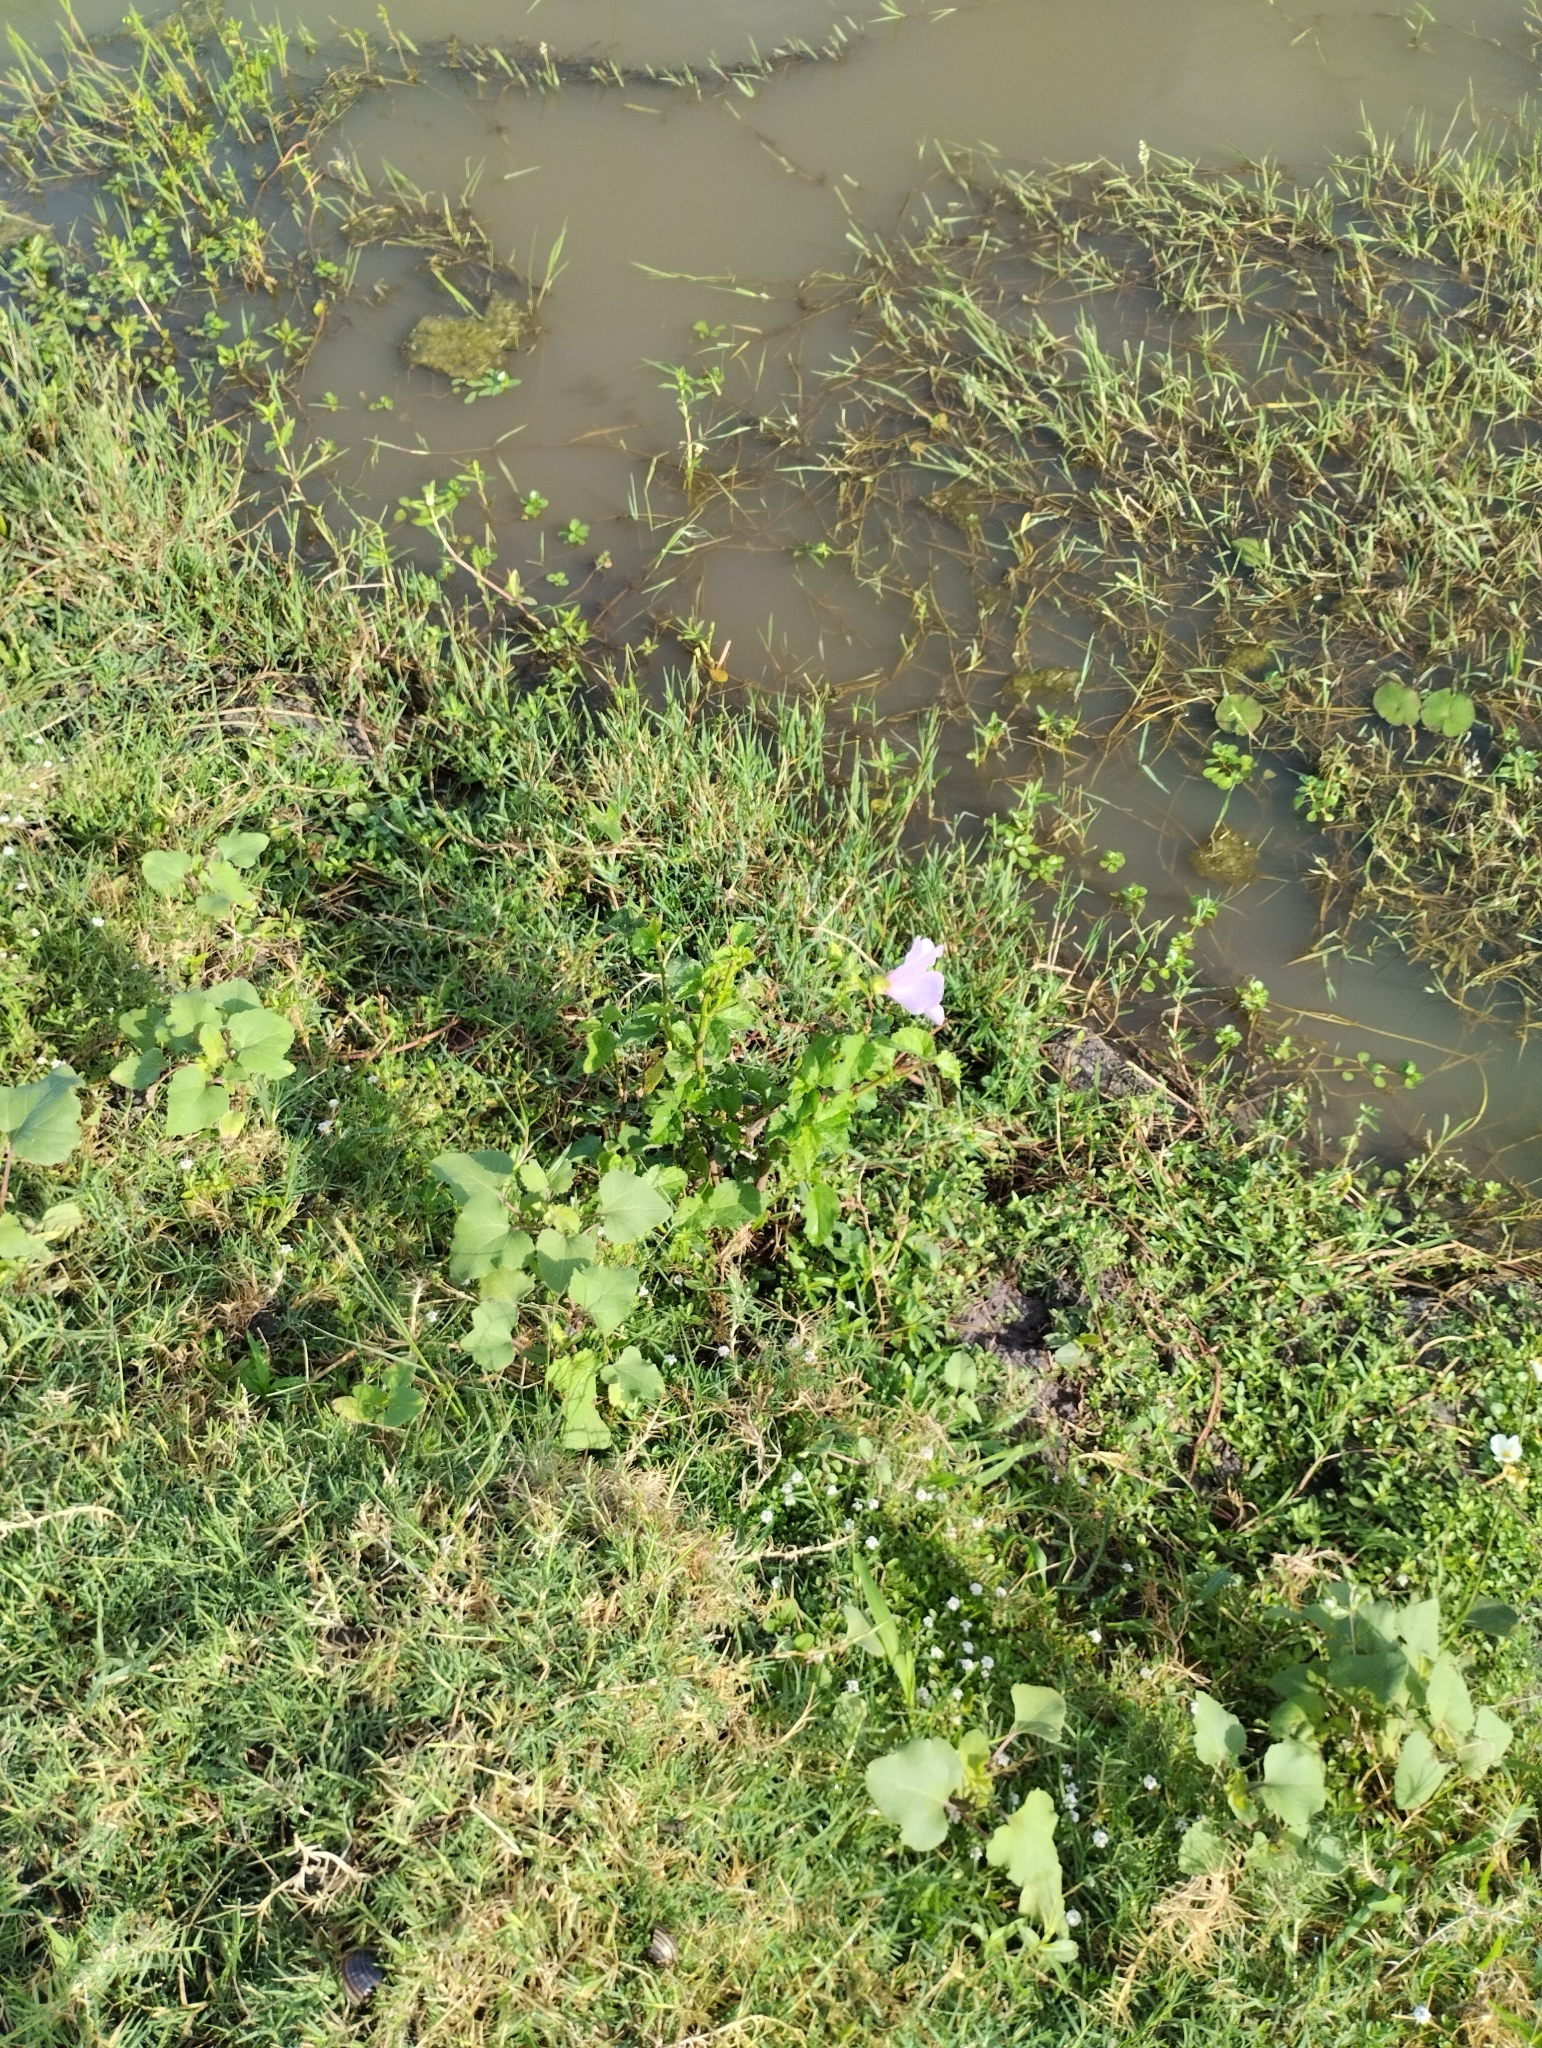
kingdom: Plantae
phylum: Tracheophyta
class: Magnoliopsida
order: Malvales
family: Malvaceae
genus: Hibiscus
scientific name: Hibiscus striatus
